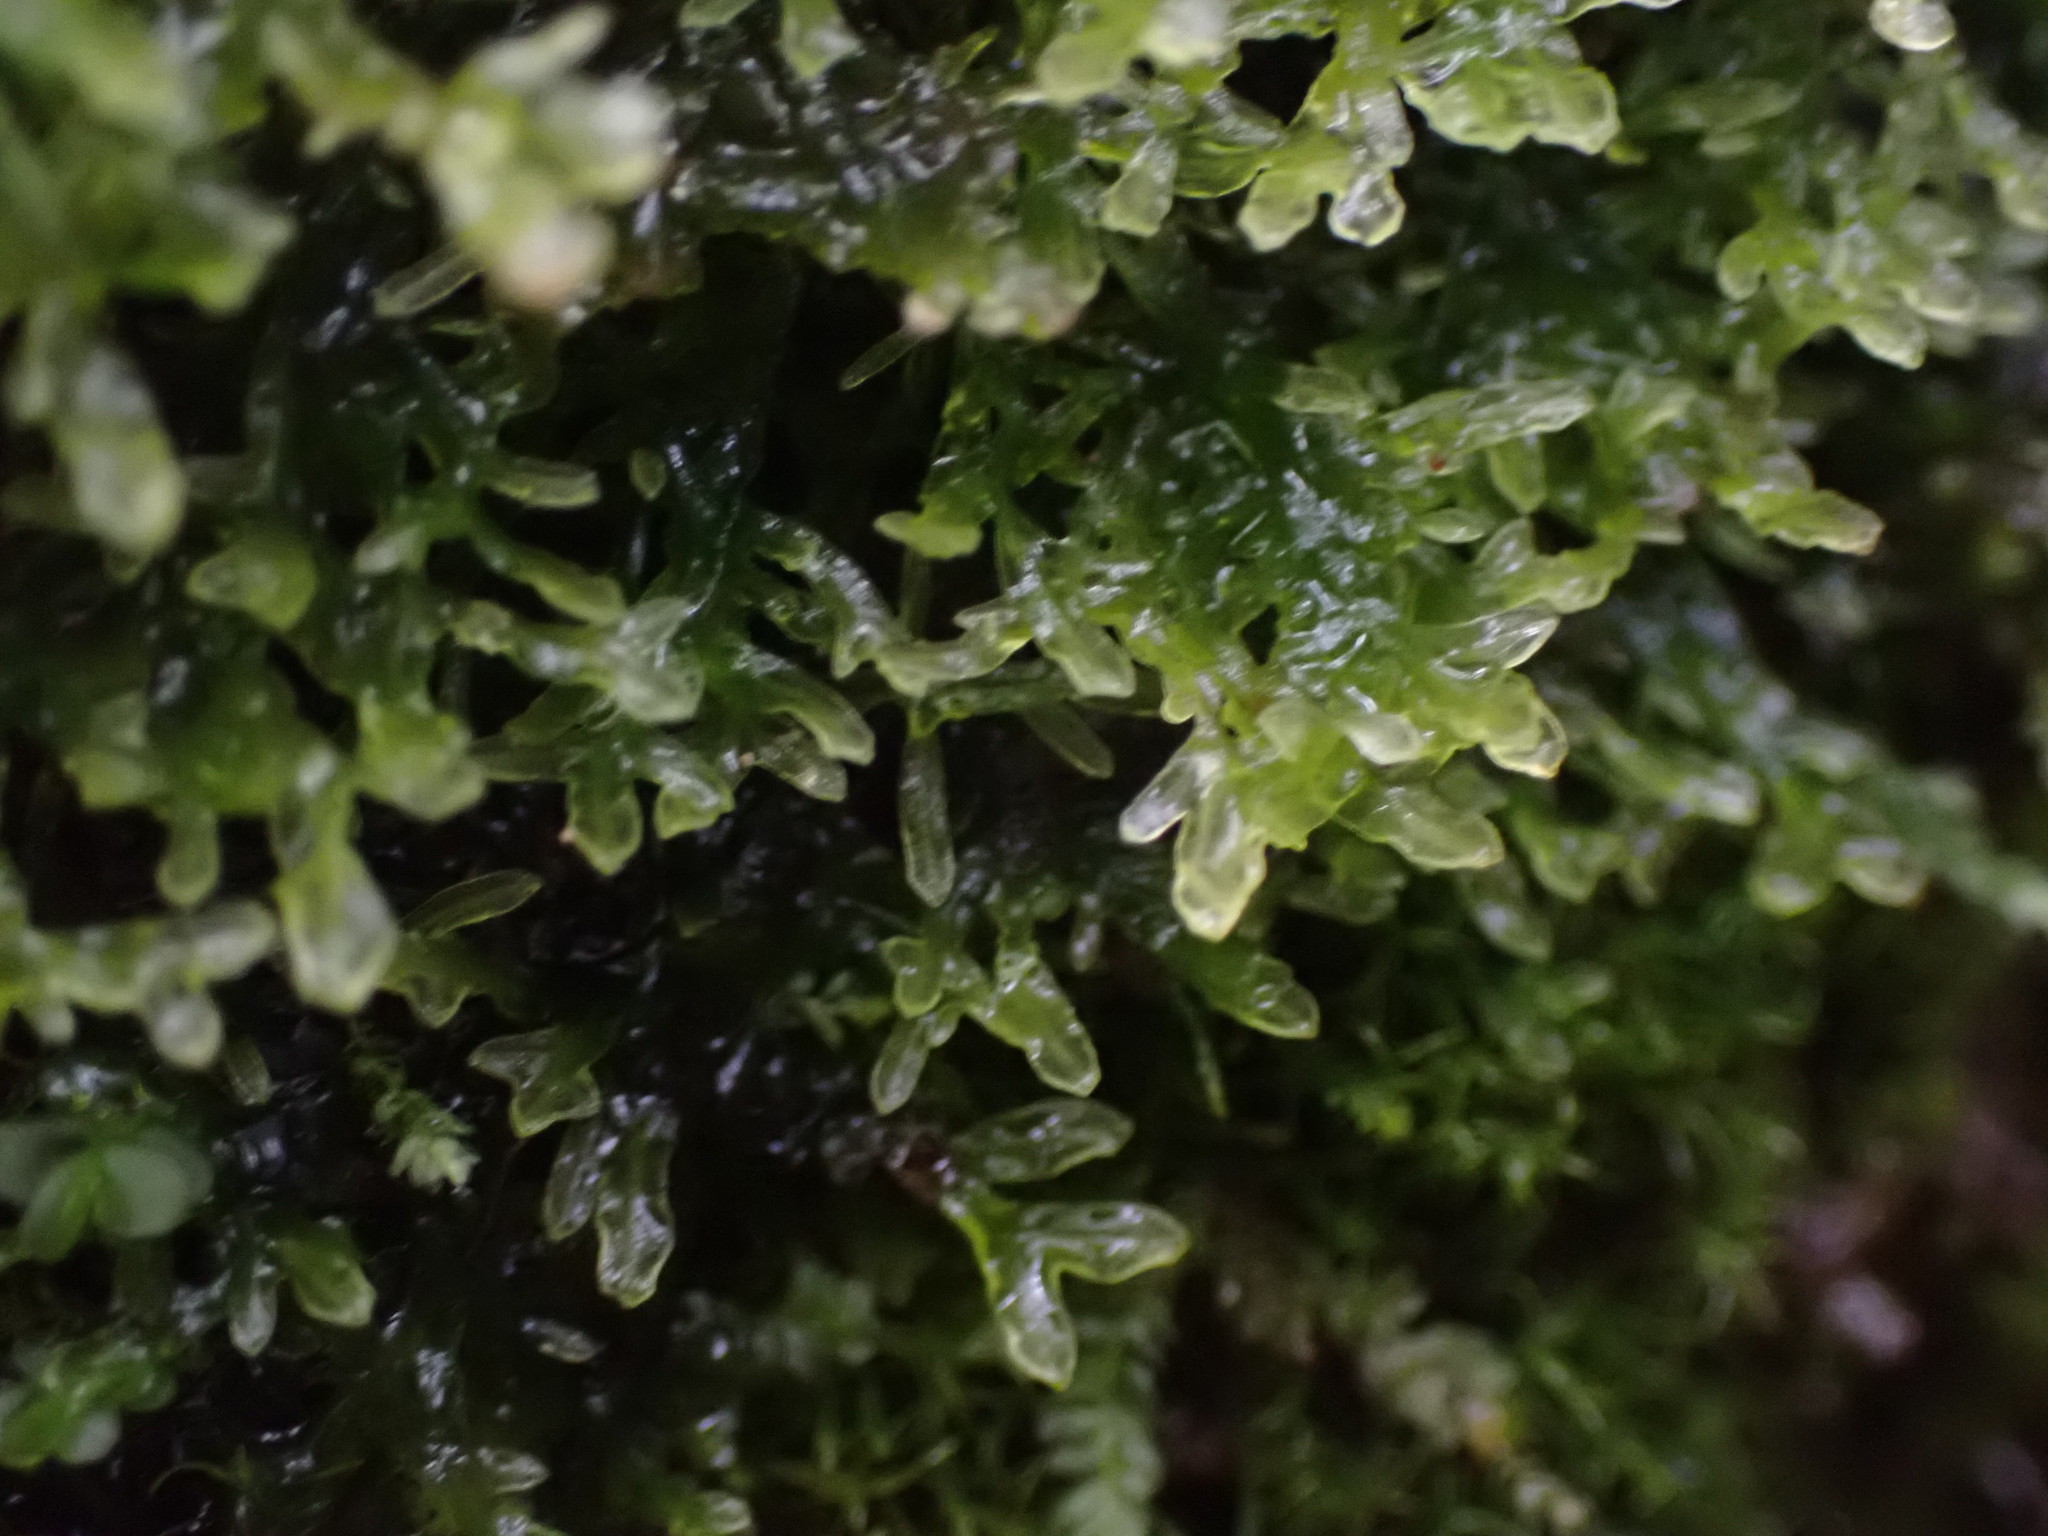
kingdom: Plantae
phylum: Marchantiophyta
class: Jungermanniopsida
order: Metzgeriales
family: Metzgeriaceae
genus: Metzgeria
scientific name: Metzgeria conjugata
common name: Rock veilwort
